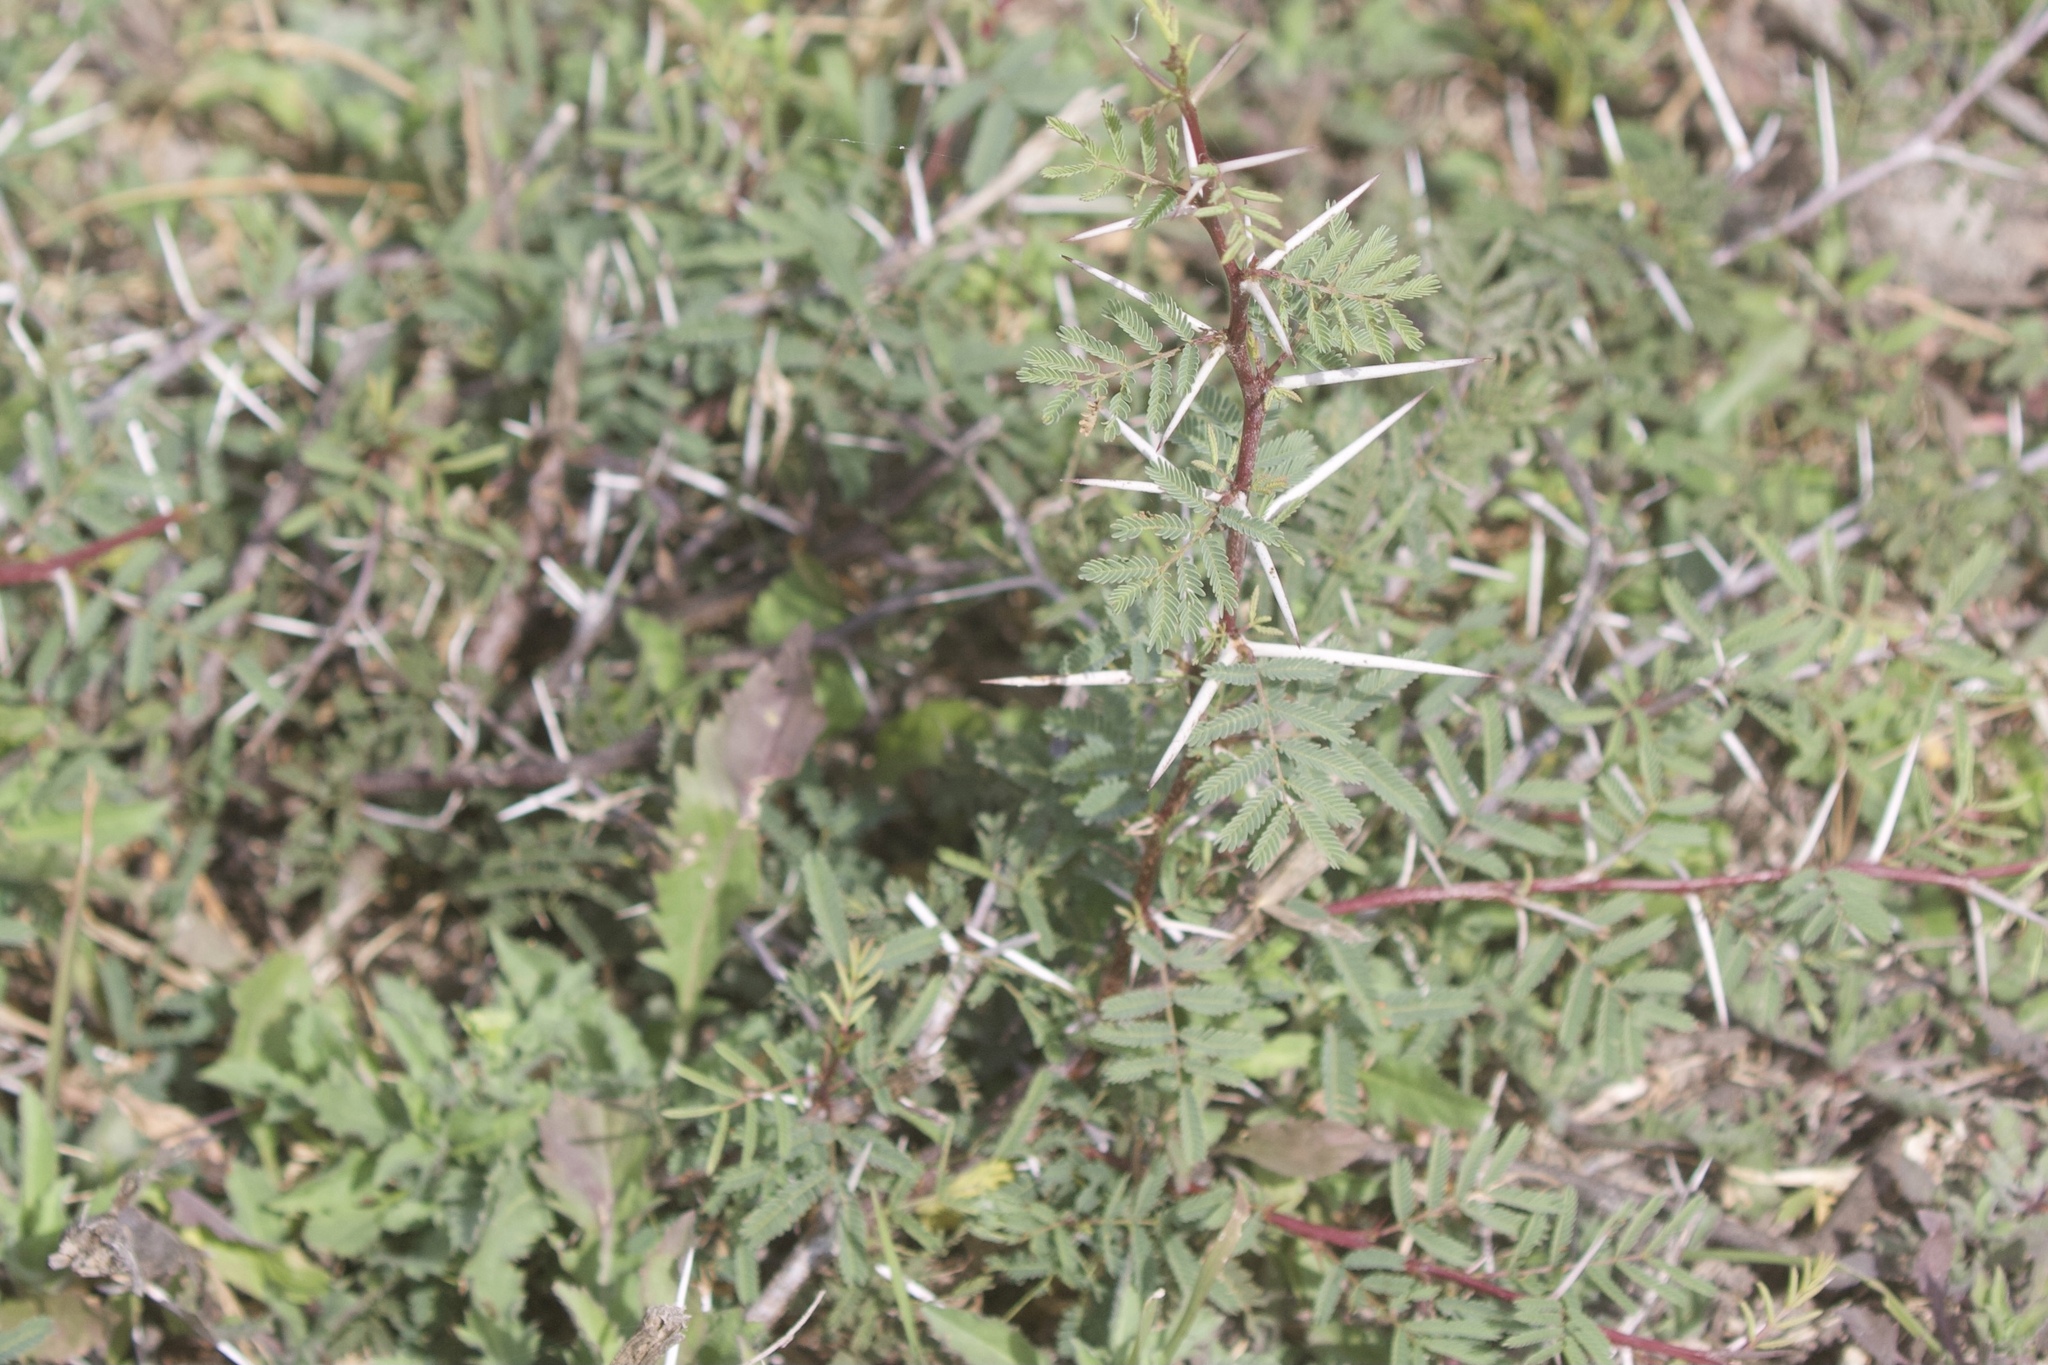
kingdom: Plantae
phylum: Tracheophyta
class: Magnoliopsida
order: Fabales
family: Fabaceae
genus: Vachellia
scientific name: Vachellia farnesiana
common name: Sweet acacia
